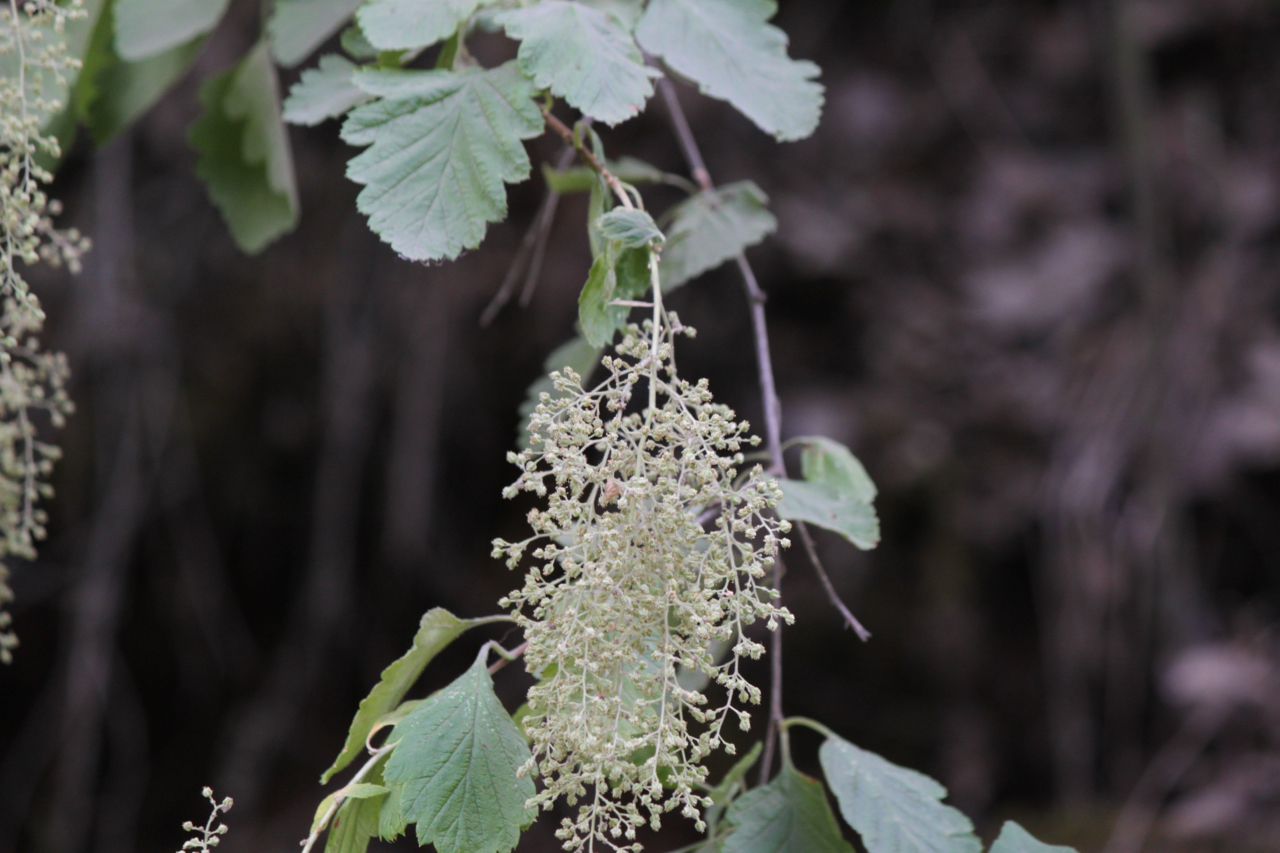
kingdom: Plantae
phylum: Tracheophyta
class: Magnoliopsida
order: Rosales
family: Rosaceae
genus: Holodiscus
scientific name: Holodiscus discolor
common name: Oceanspray
